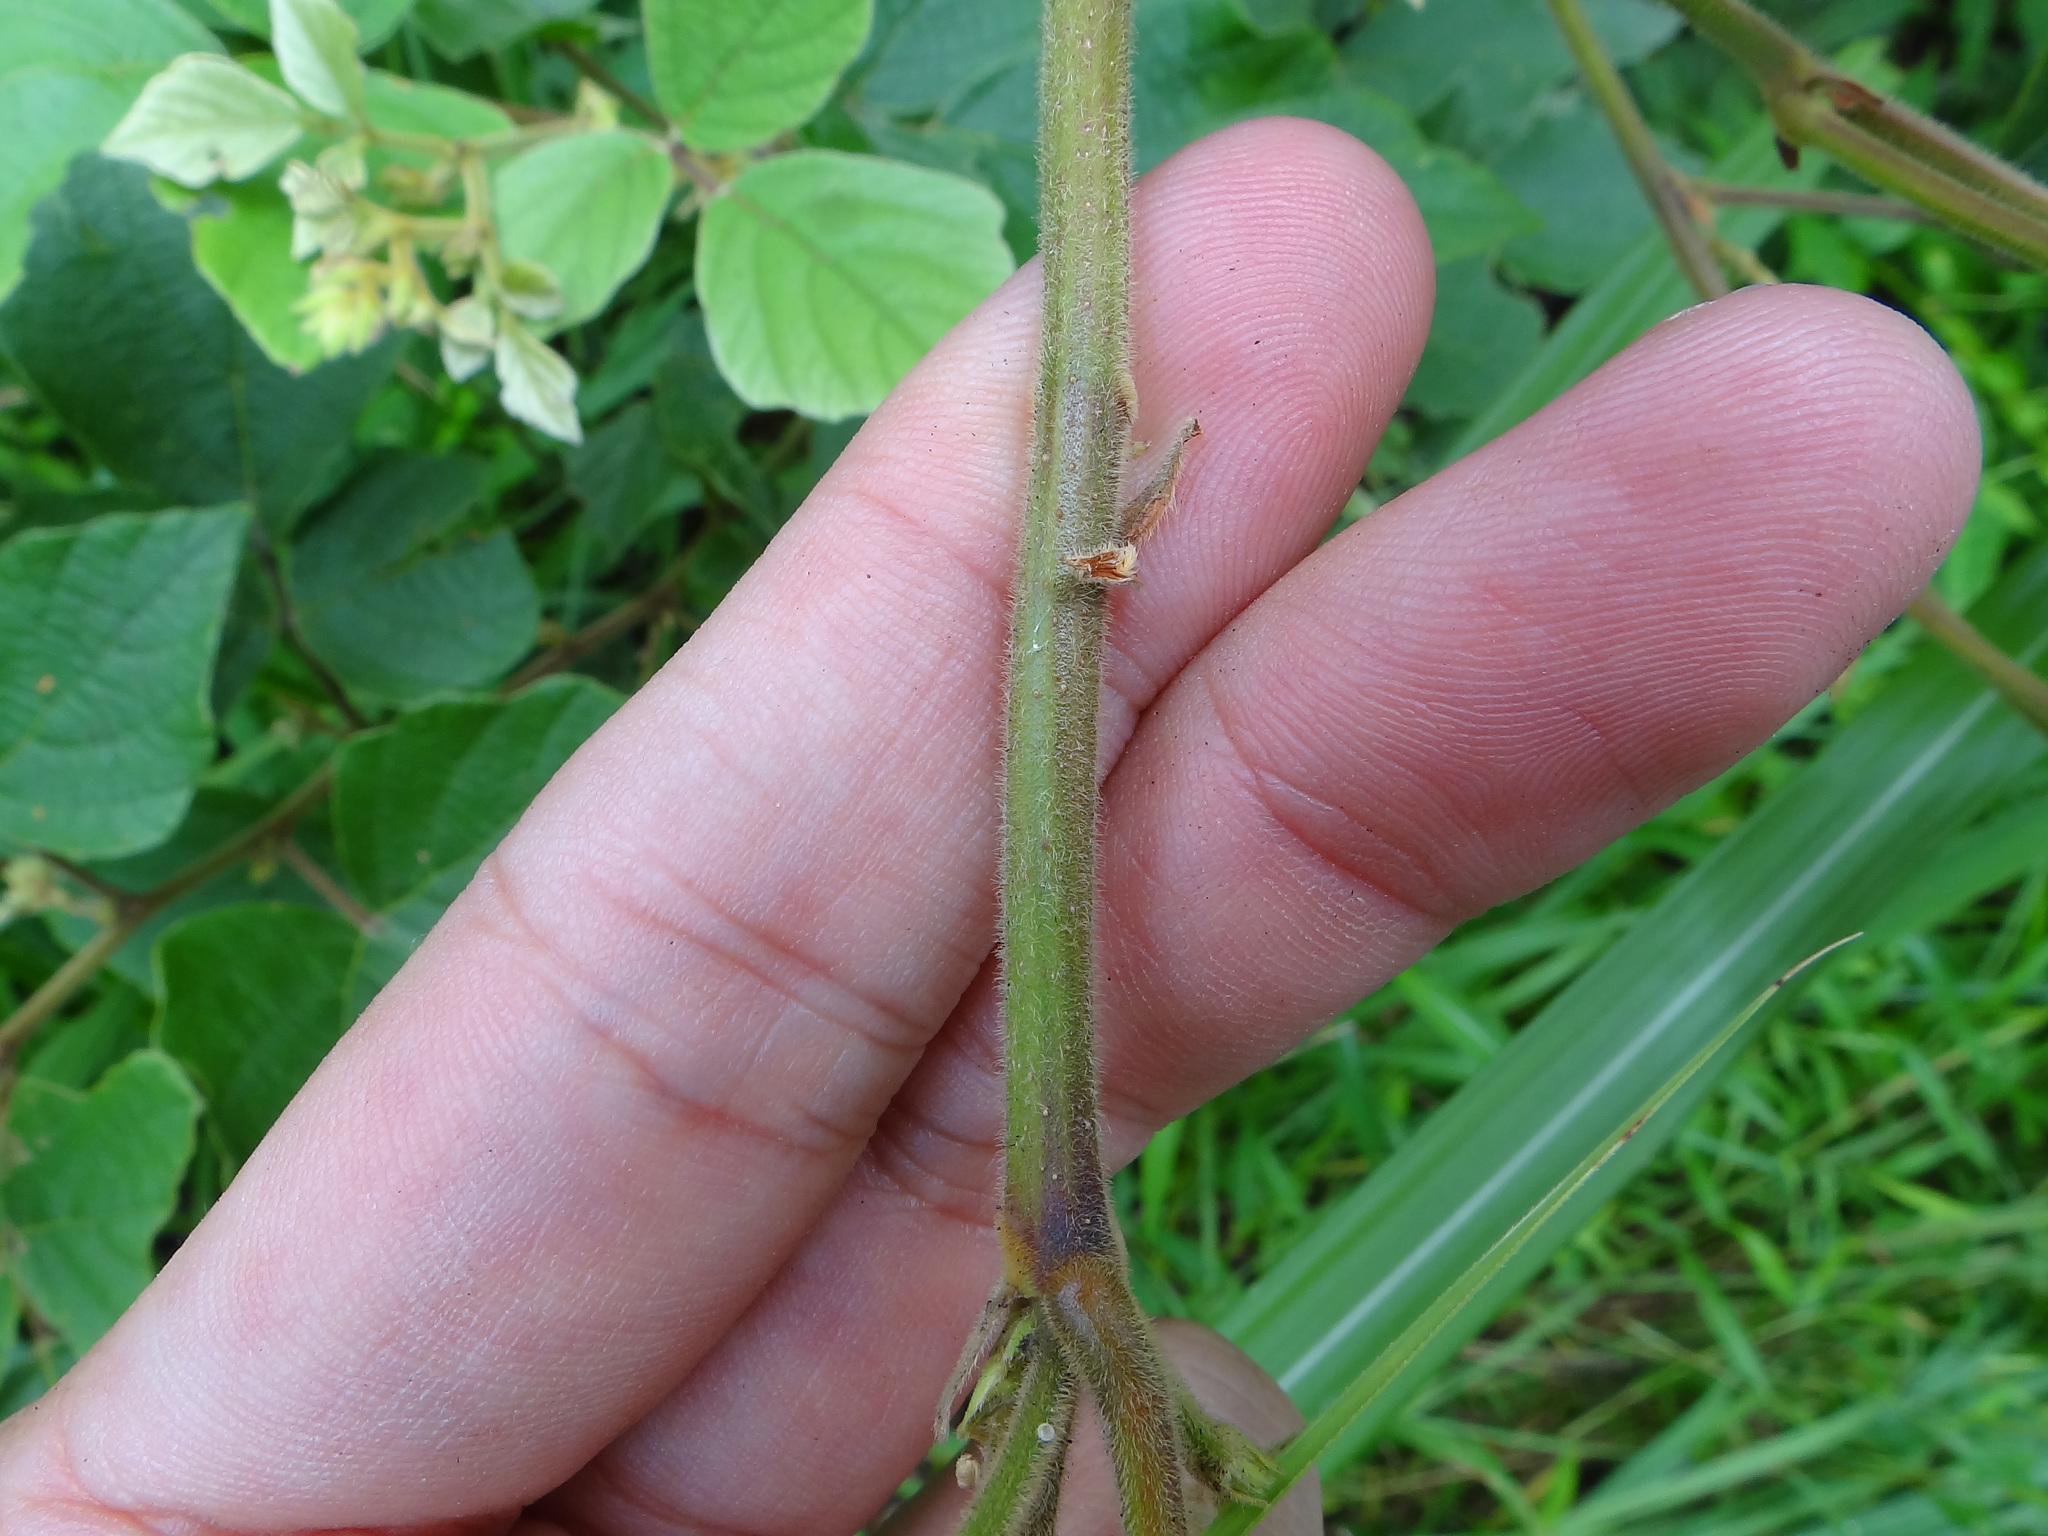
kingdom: Plantae
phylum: Tracheophyta
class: Magnoliopsida
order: Fabales
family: Fabaceae
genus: Puhuaea
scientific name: Puhuaea sequax
